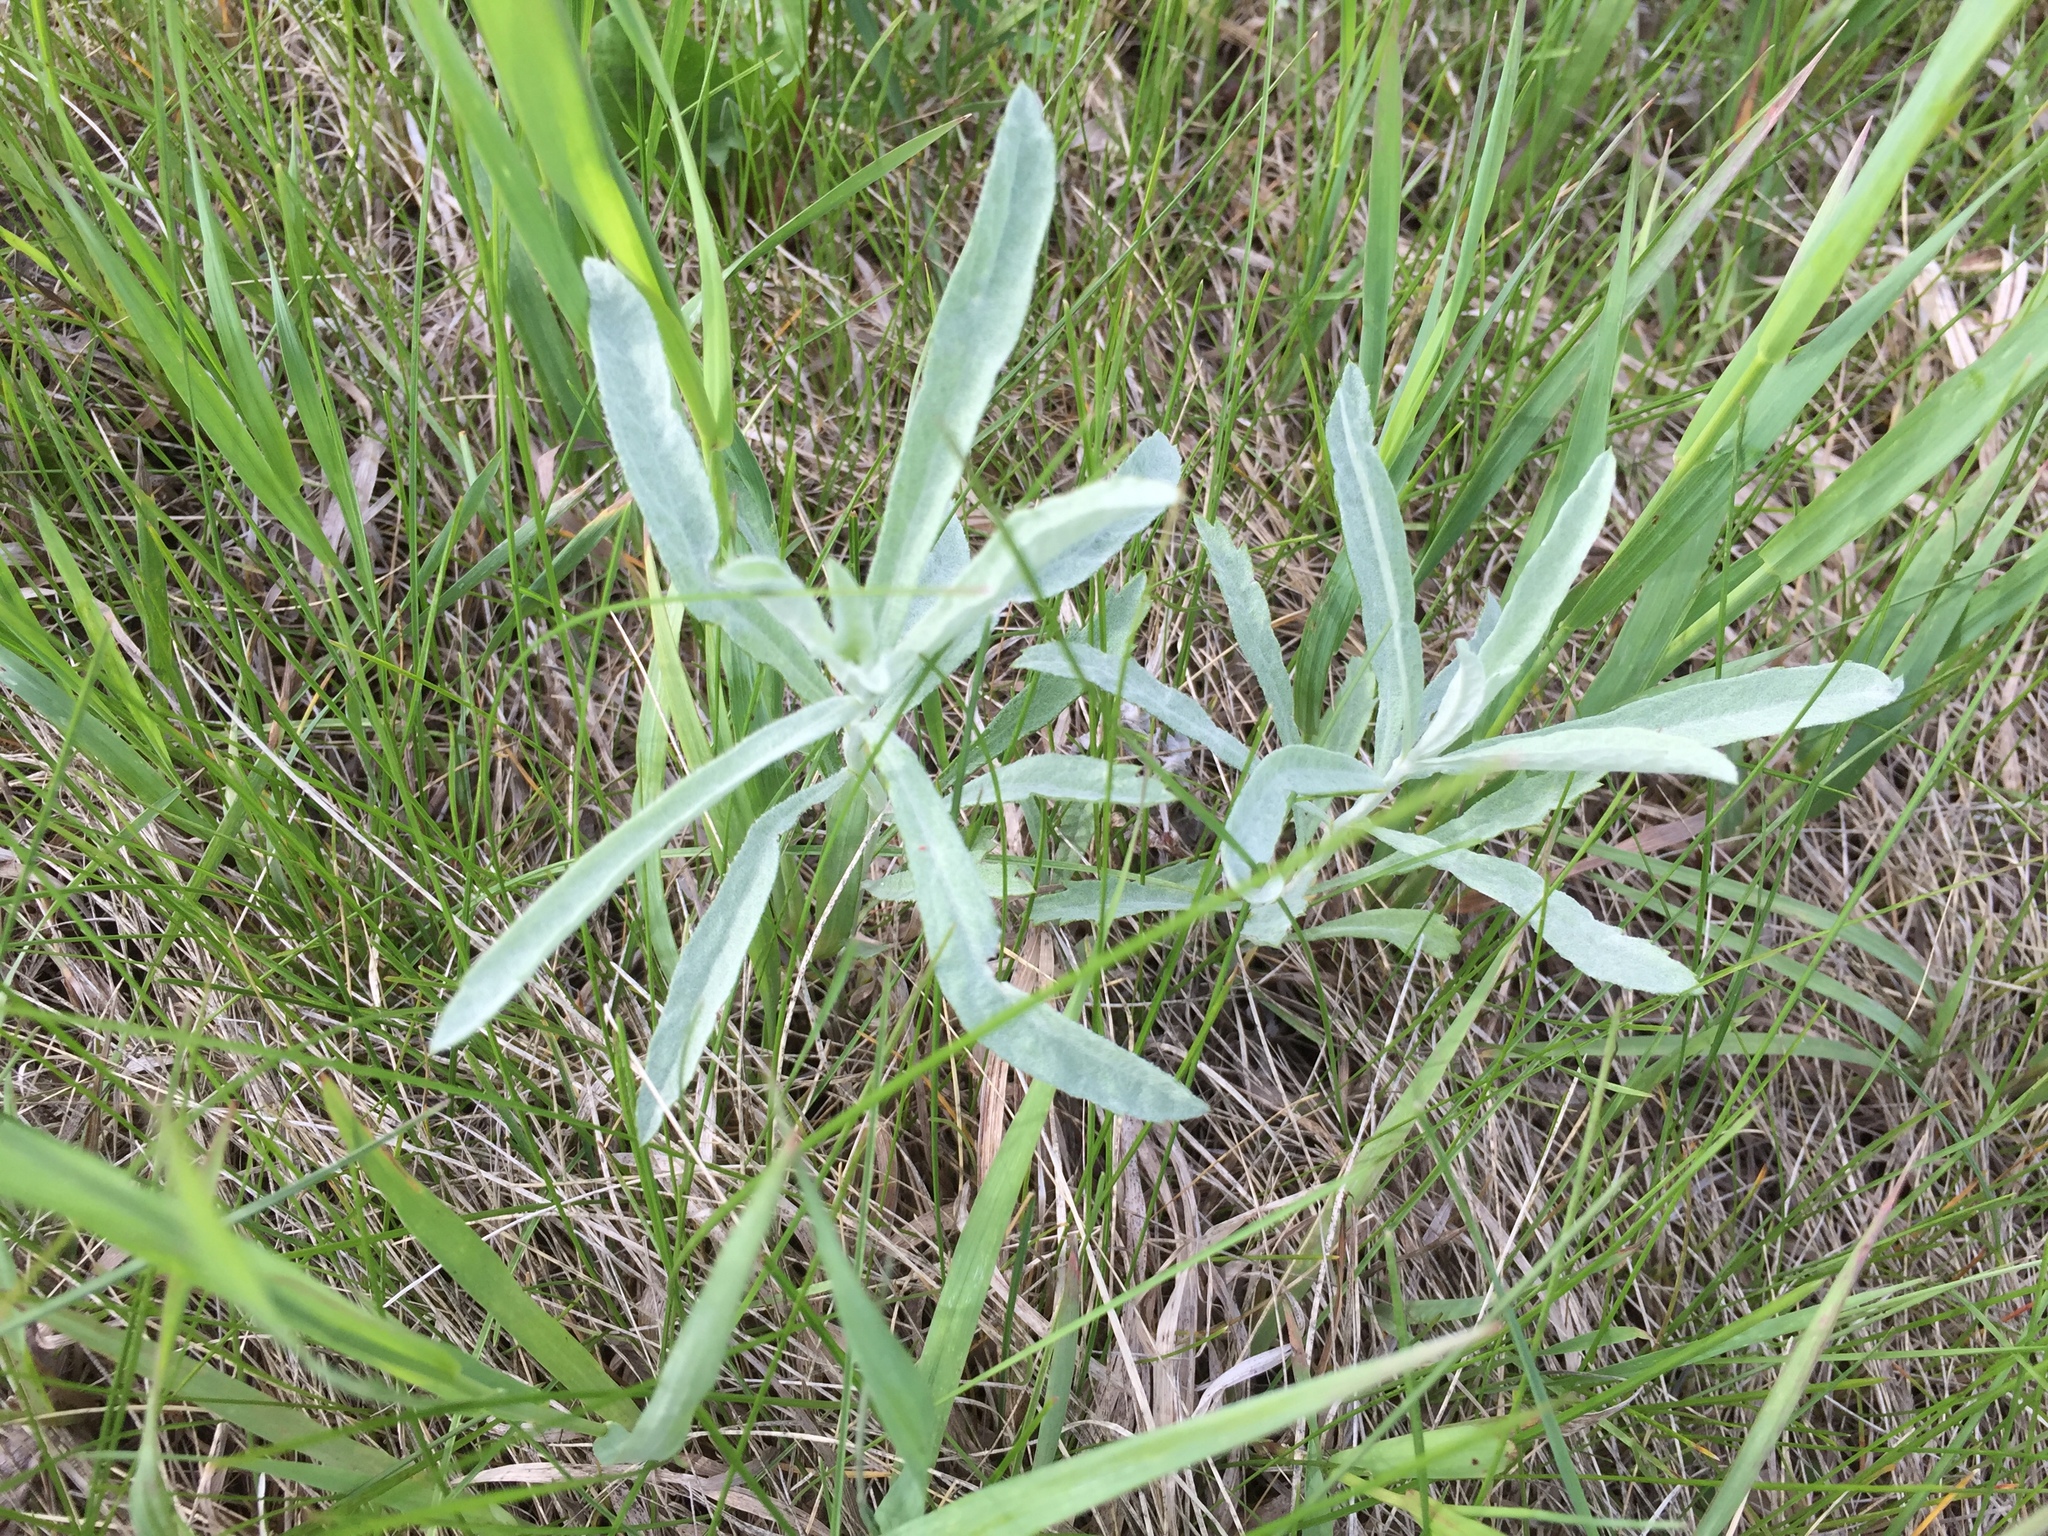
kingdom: Plantae
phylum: Tracheophyta
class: Magnoliopsida
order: Asterales
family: Asteraceae
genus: Artemisia
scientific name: Artemisia ludoviciana
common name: Western mugwort
